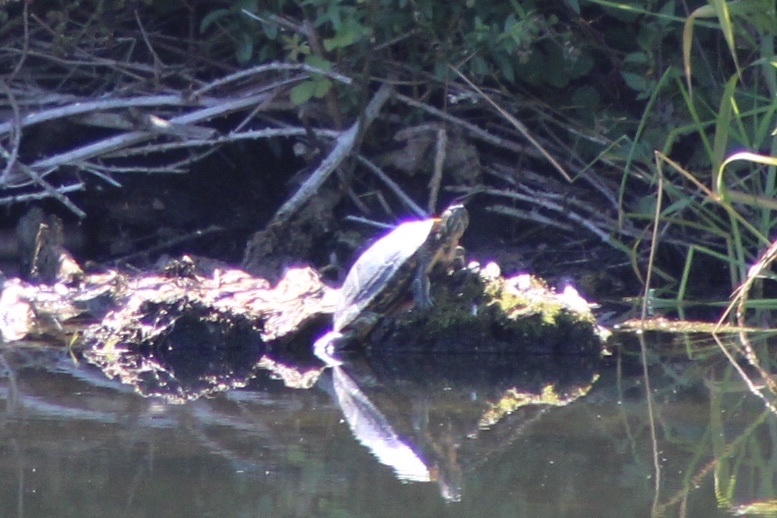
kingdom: Animalia
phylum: Chordata
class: Testudines
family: Emydidae
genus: Trachemys
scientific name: Trachemys scripta
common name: Slider
